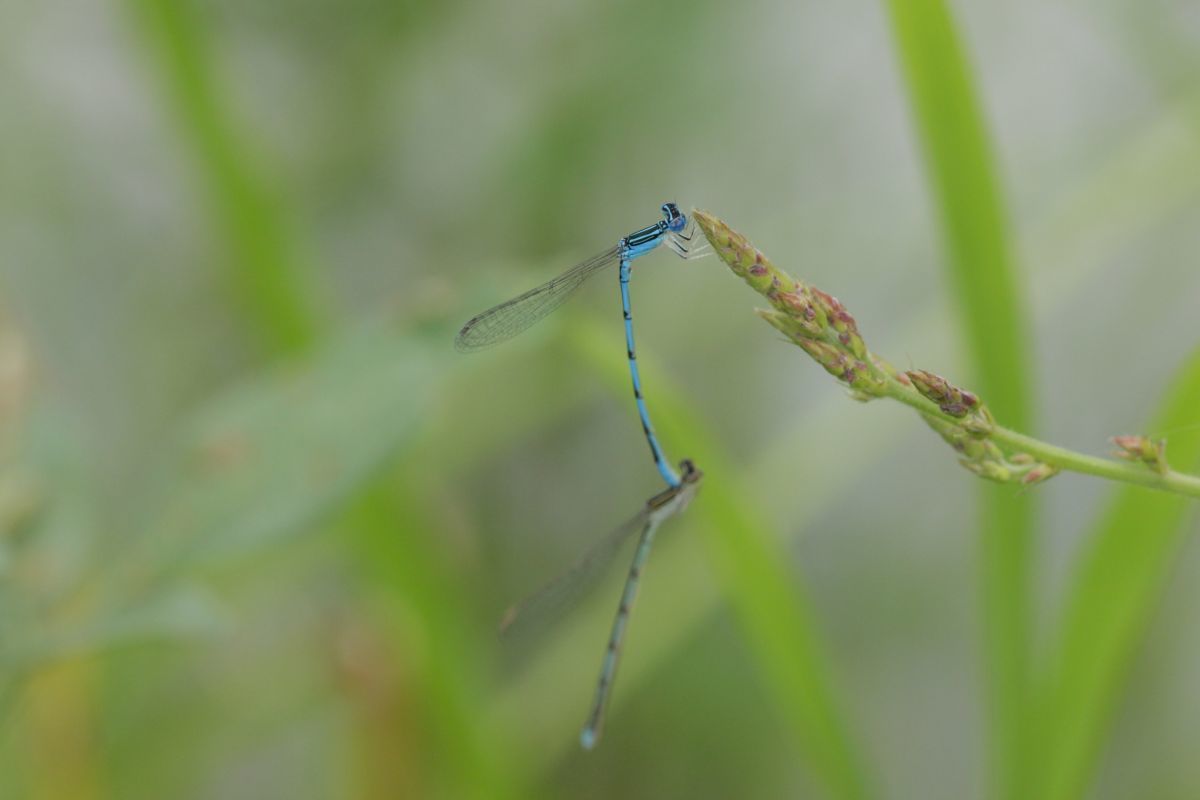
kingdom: Animalia
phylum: Arthropoda
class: Insecta
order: Odonata
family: Coenagrionidae
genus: Enallagma
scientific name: Enallagma basidens
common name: Double-striped bluet
